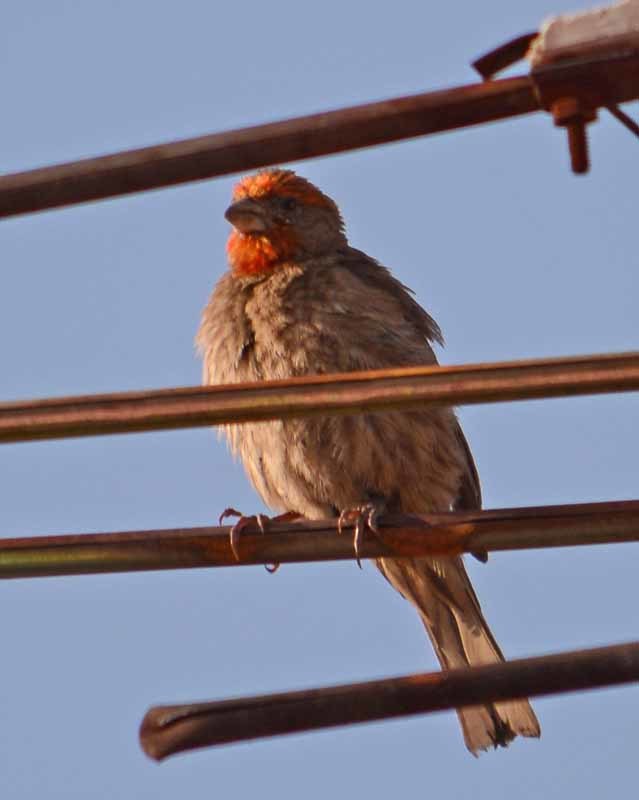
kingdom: Animalia
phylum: Chordata
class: Aves
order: Passeriformes
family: Fringillidae
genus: Haemorhous
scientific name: Haemorhous mexicanus
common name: House finch
